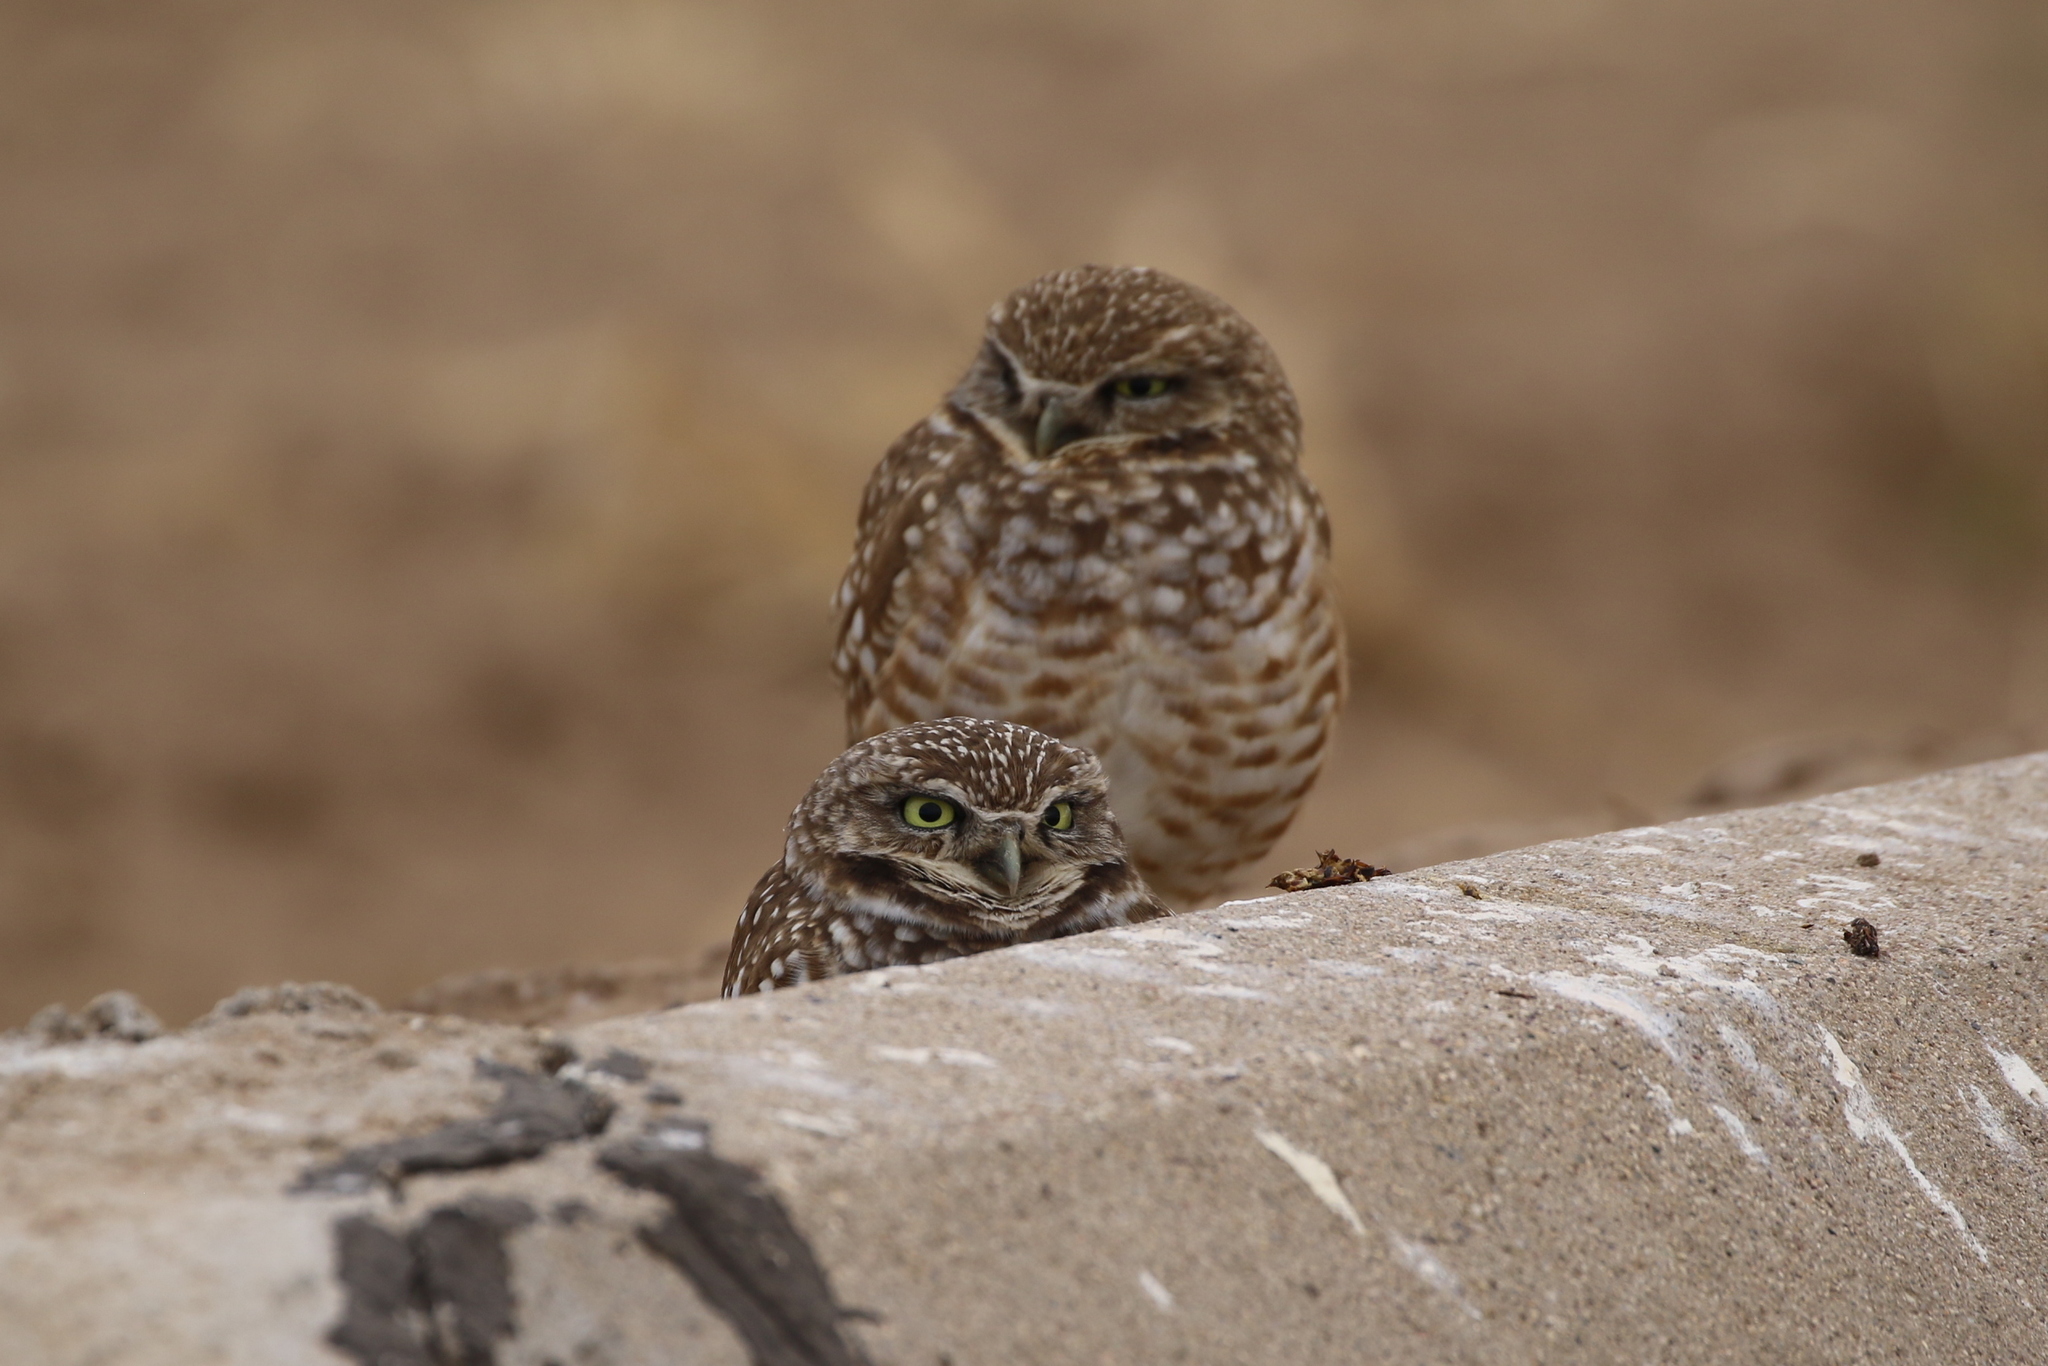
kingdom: Animalia
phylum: Chordata
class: Aves
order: Strigiformes
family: Strigidae
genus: Athene
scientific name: Athene cunicularia
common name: Burrowing owl
